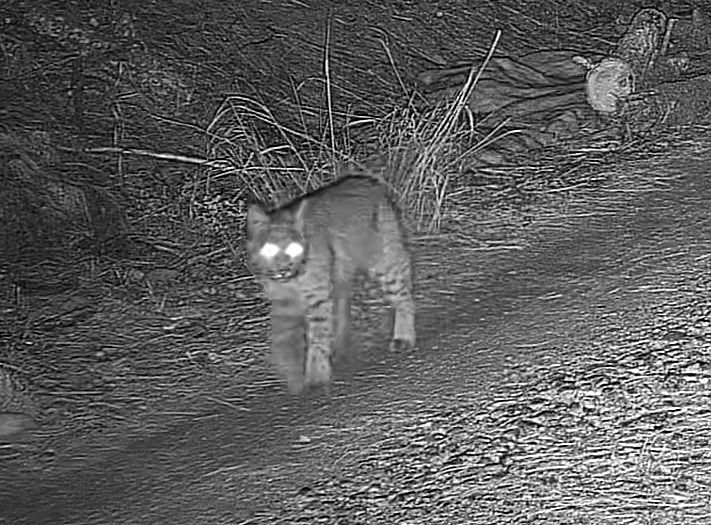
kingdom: Animalia
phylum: Chordata
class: Mammalia
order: Carnivora
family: Felidae
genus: Lynx
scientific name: Lynx rufus
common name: Bobcat
